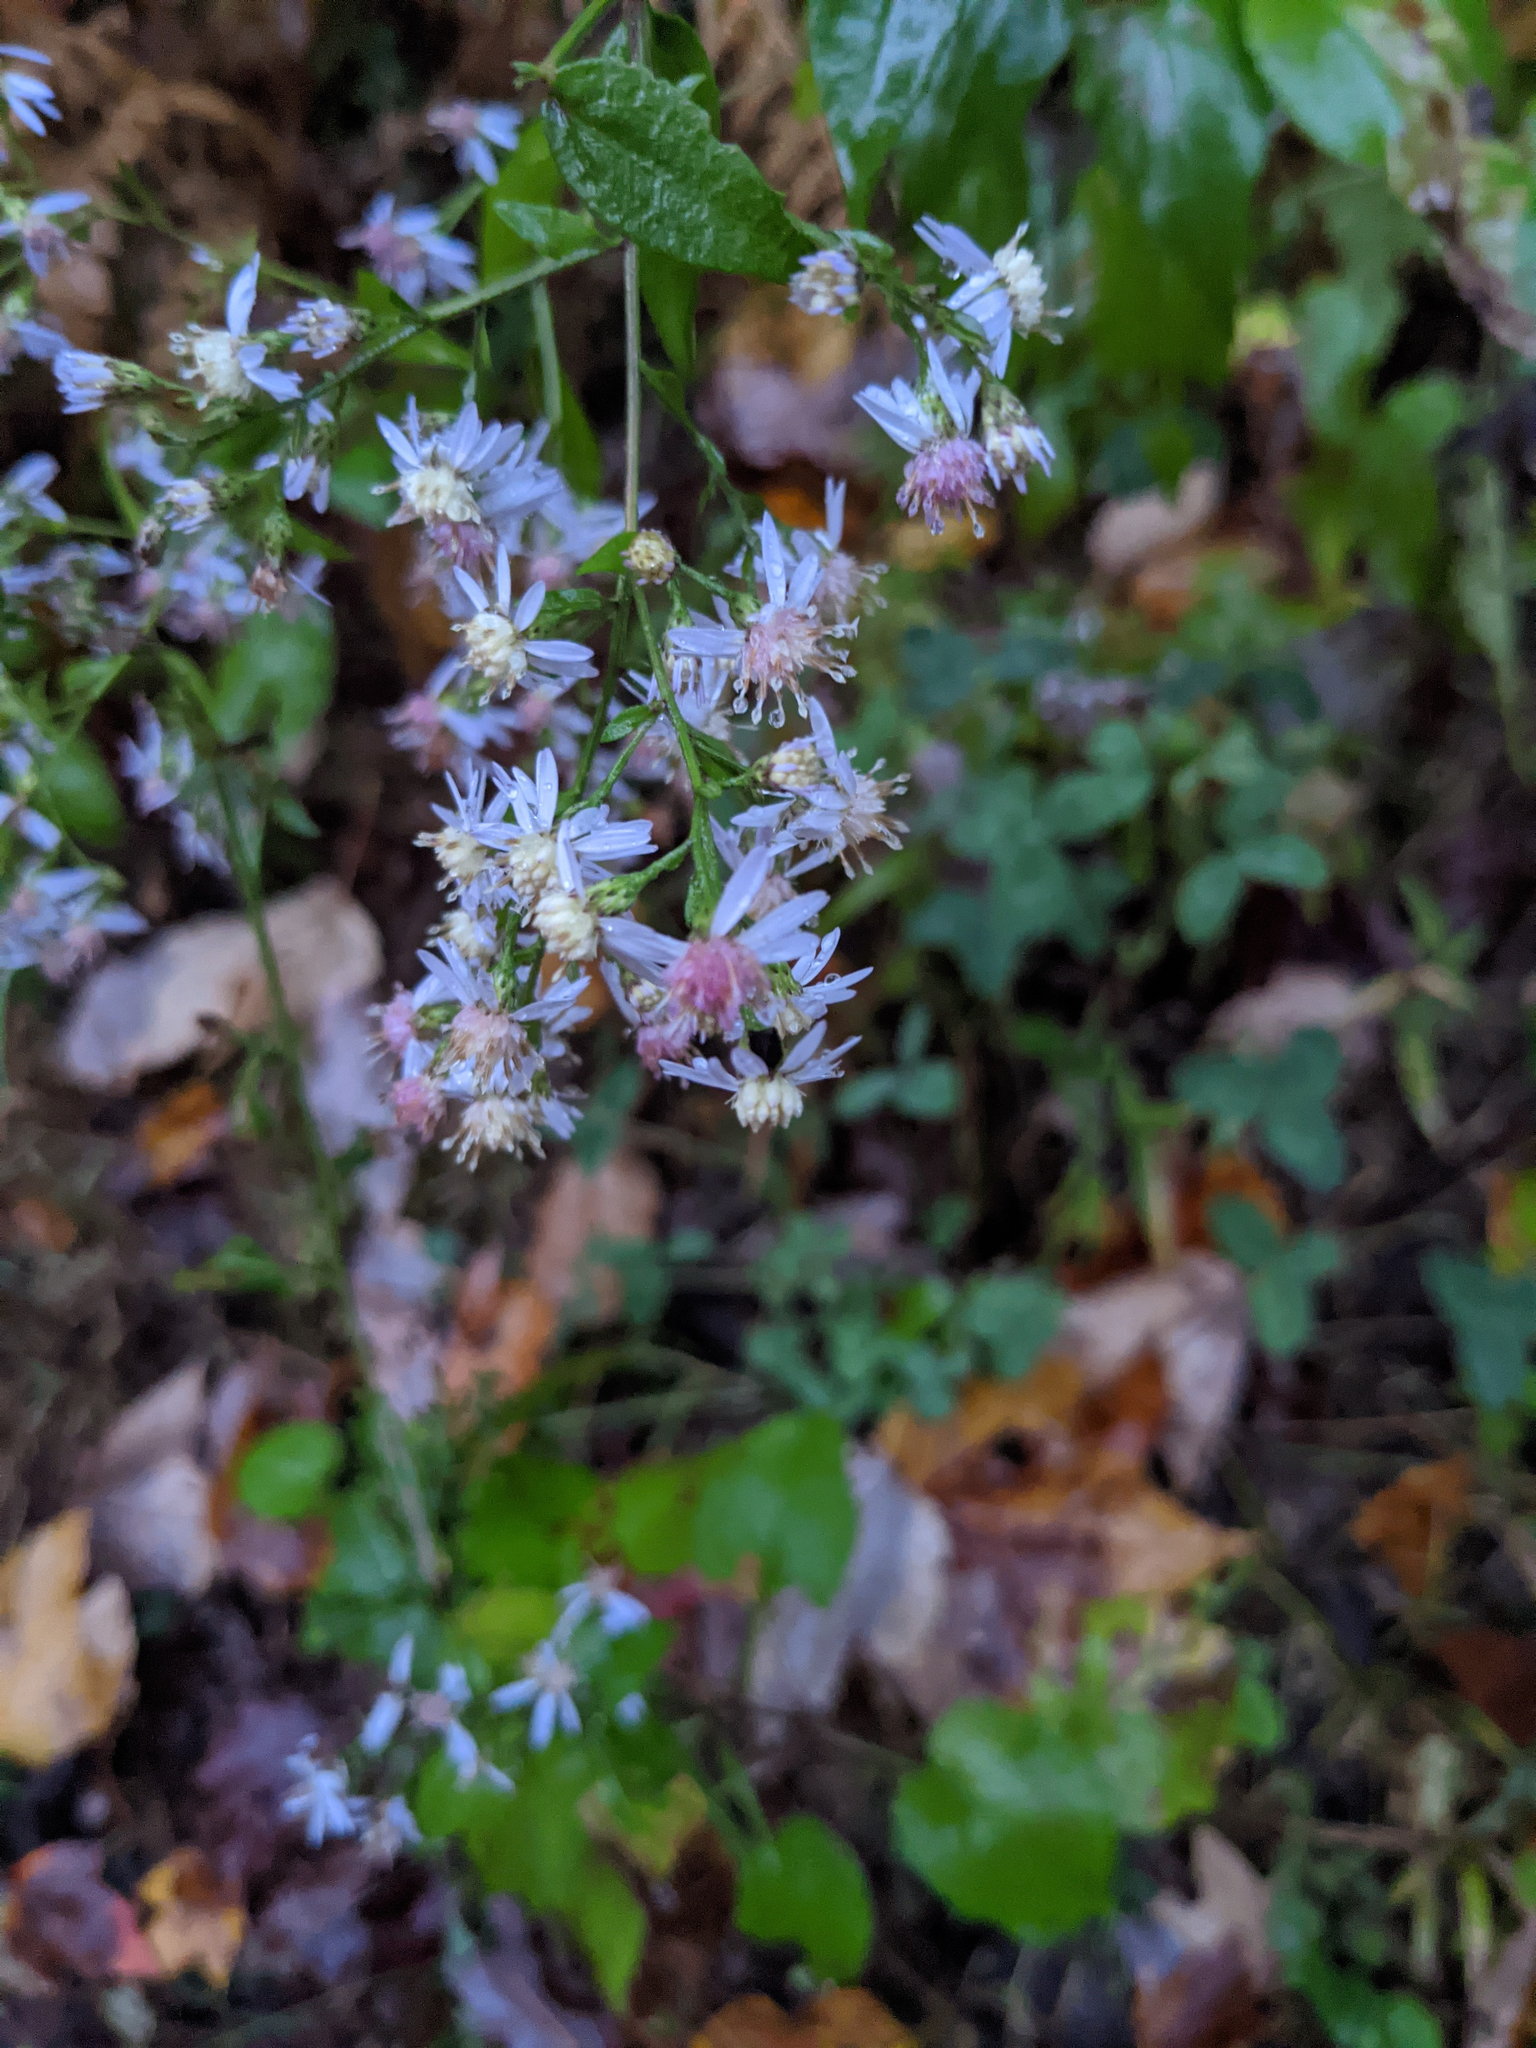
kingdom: Plantae
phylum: Tracheophyta
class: Magnoliopsida
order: Asterales
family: Asteraceae
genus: Symphyotrichum
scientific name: Symphyotrichum cordifolium
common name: Beeweed
